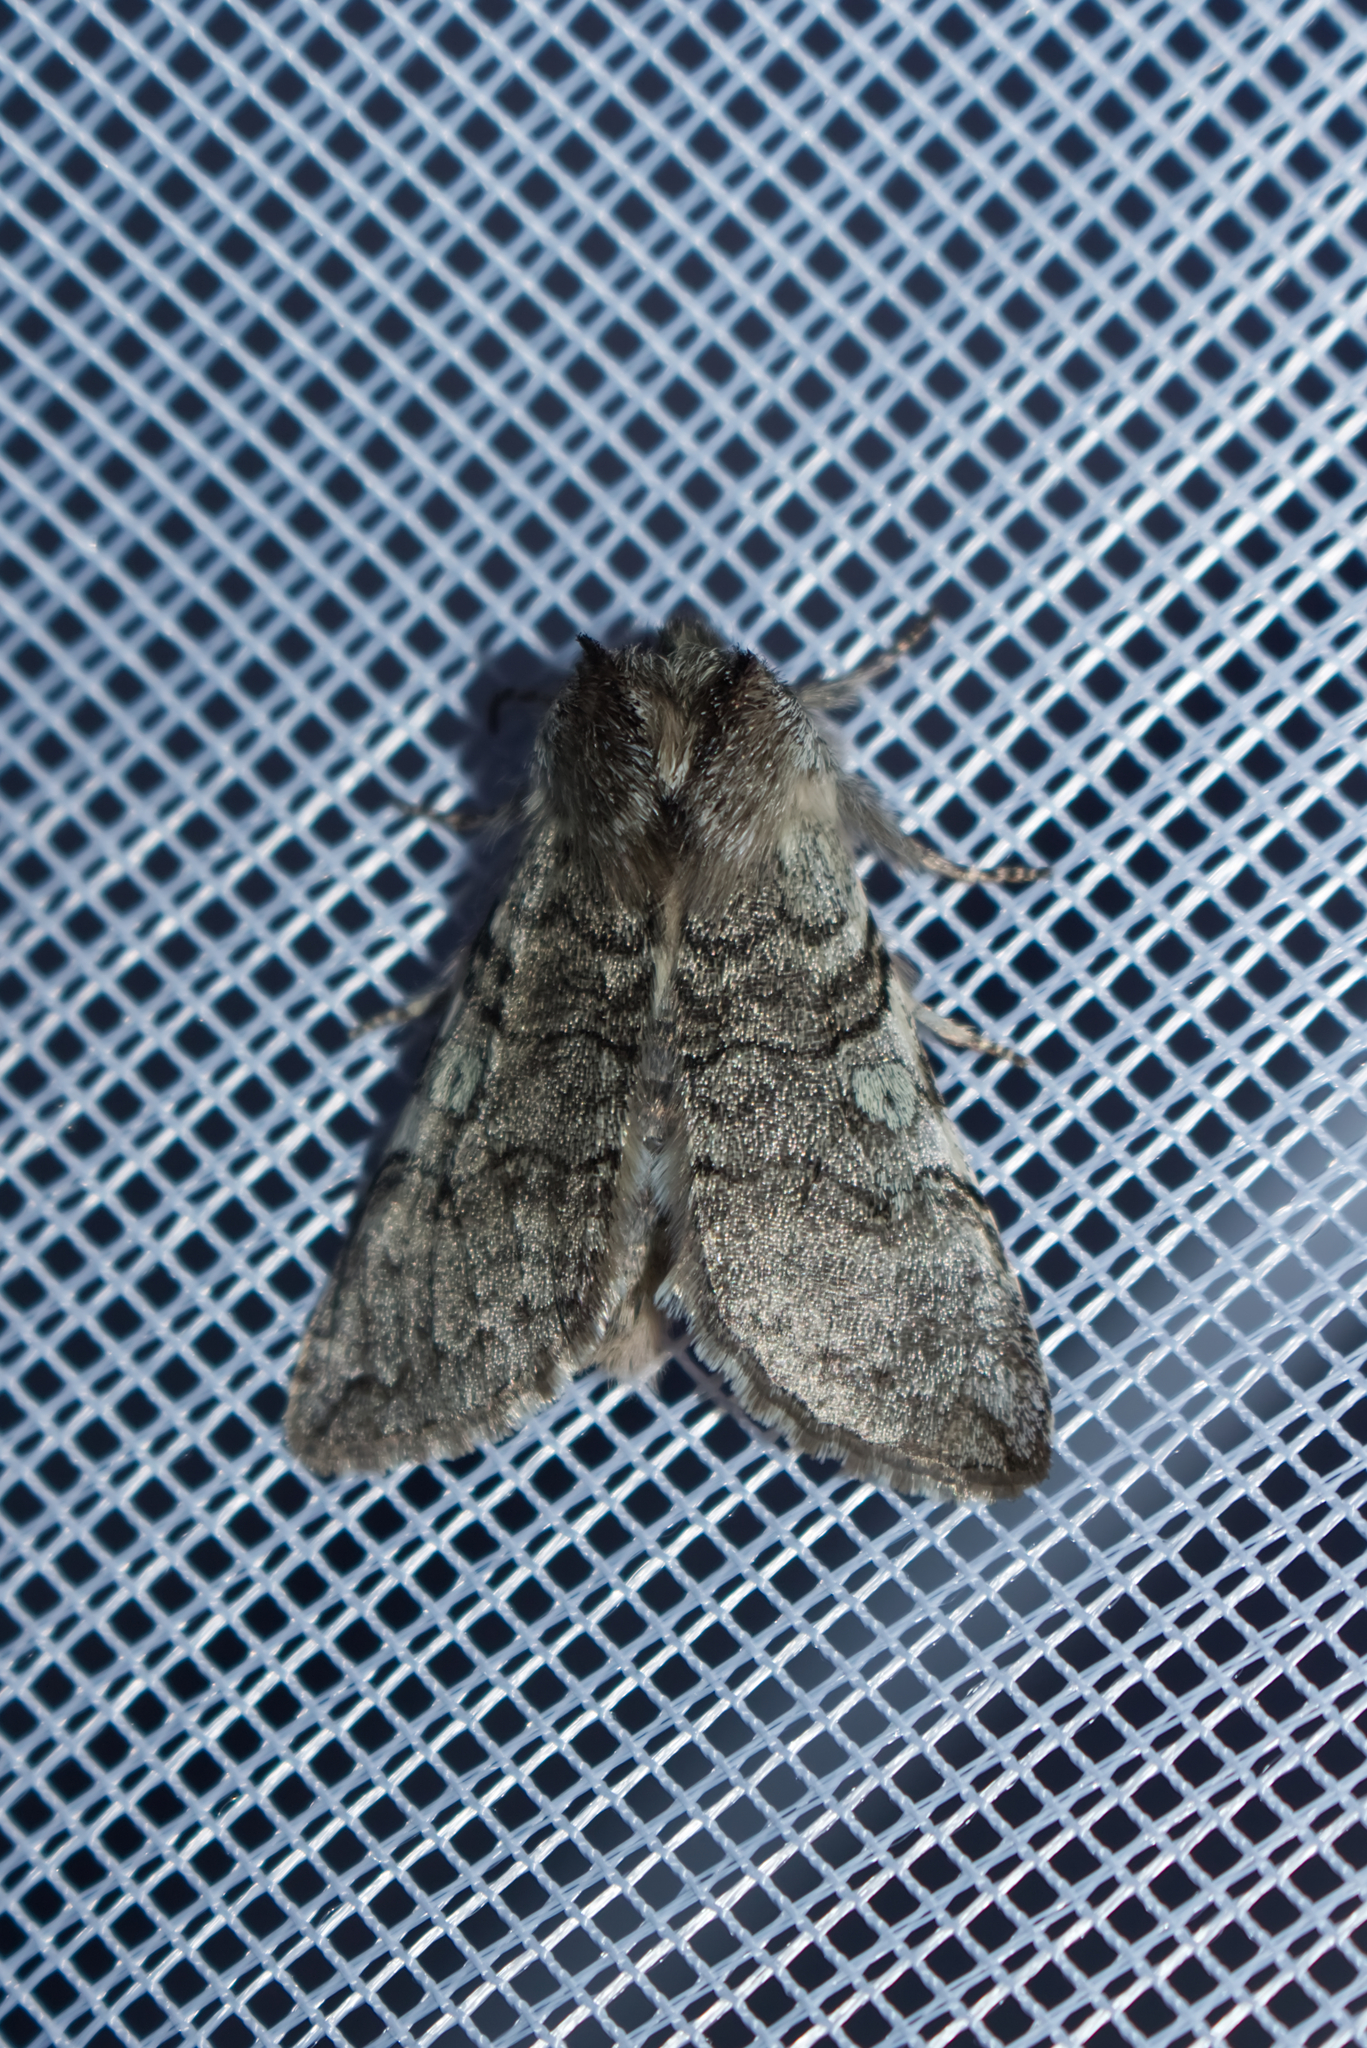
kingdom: Animalia
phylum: Arthropoda
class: Insecta
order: Lepidoptera
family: Drepanidae
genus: Achlya
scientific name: Achlya flavicornis
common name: Yellow horned
